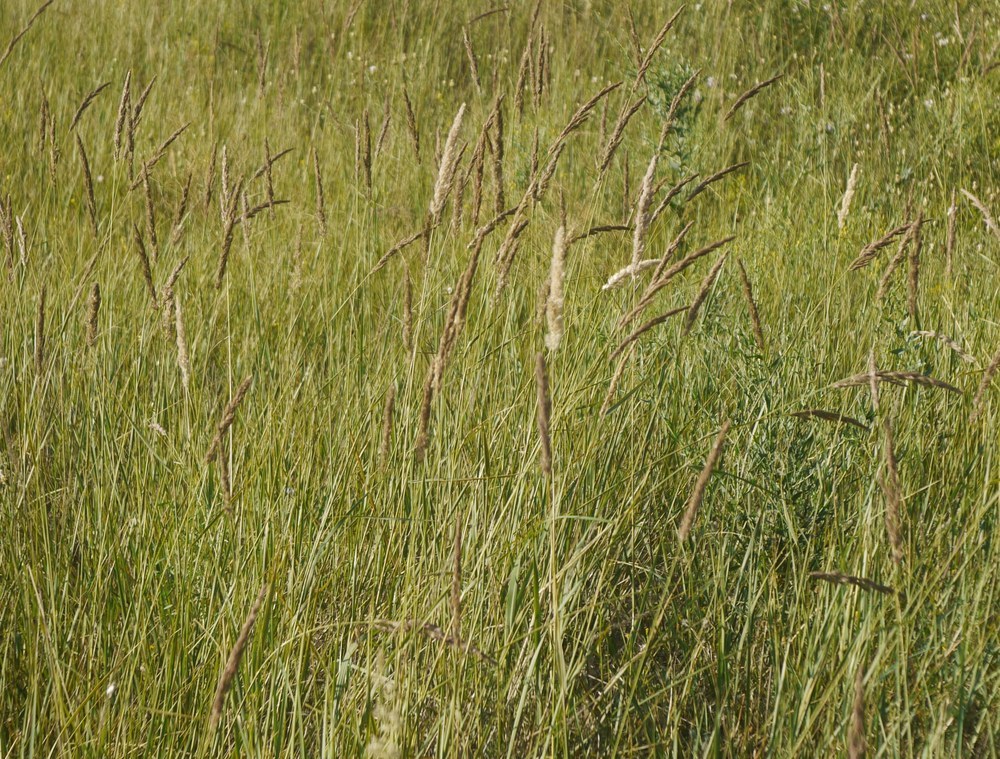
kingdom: Plantae
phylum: Tracheophyta
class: Liliopsida
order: Poales
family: Poaceae
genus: Calamagrostis
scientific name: Calamagrostis epigejos
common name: Wood small-reed
